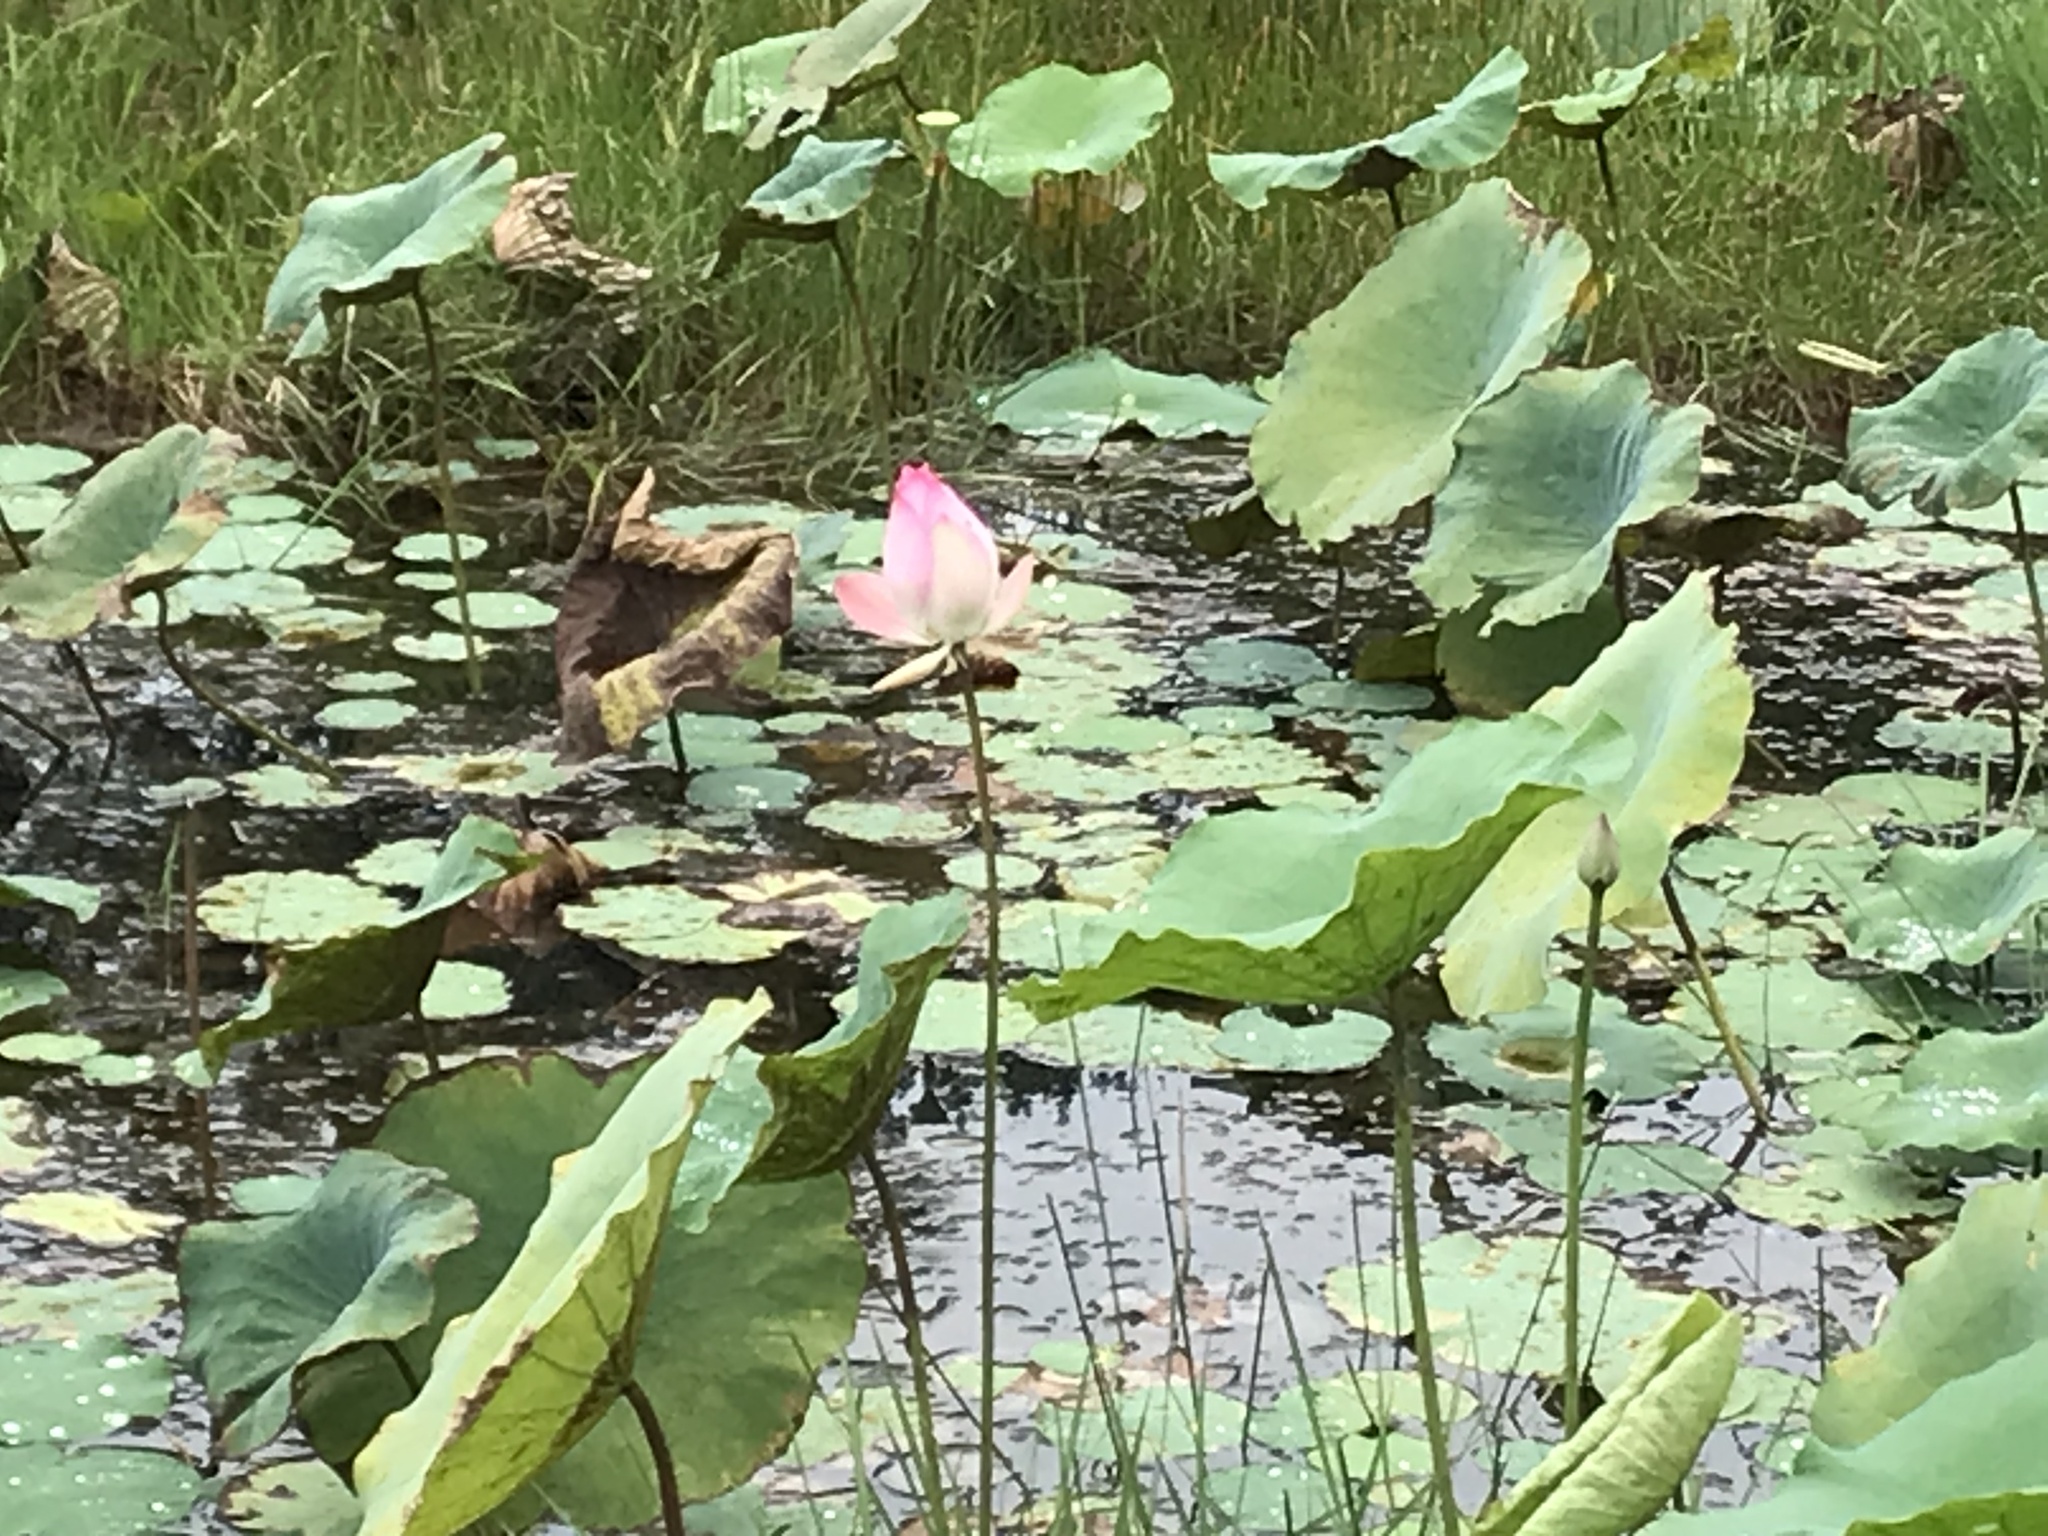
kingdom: Plantae
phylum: Tracheophyta
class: Magnoliopsida
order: Proteales
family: Nelumbonaceae
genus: Nelumbo
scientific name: Nelumbo nucifera
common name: Sacred lotus
